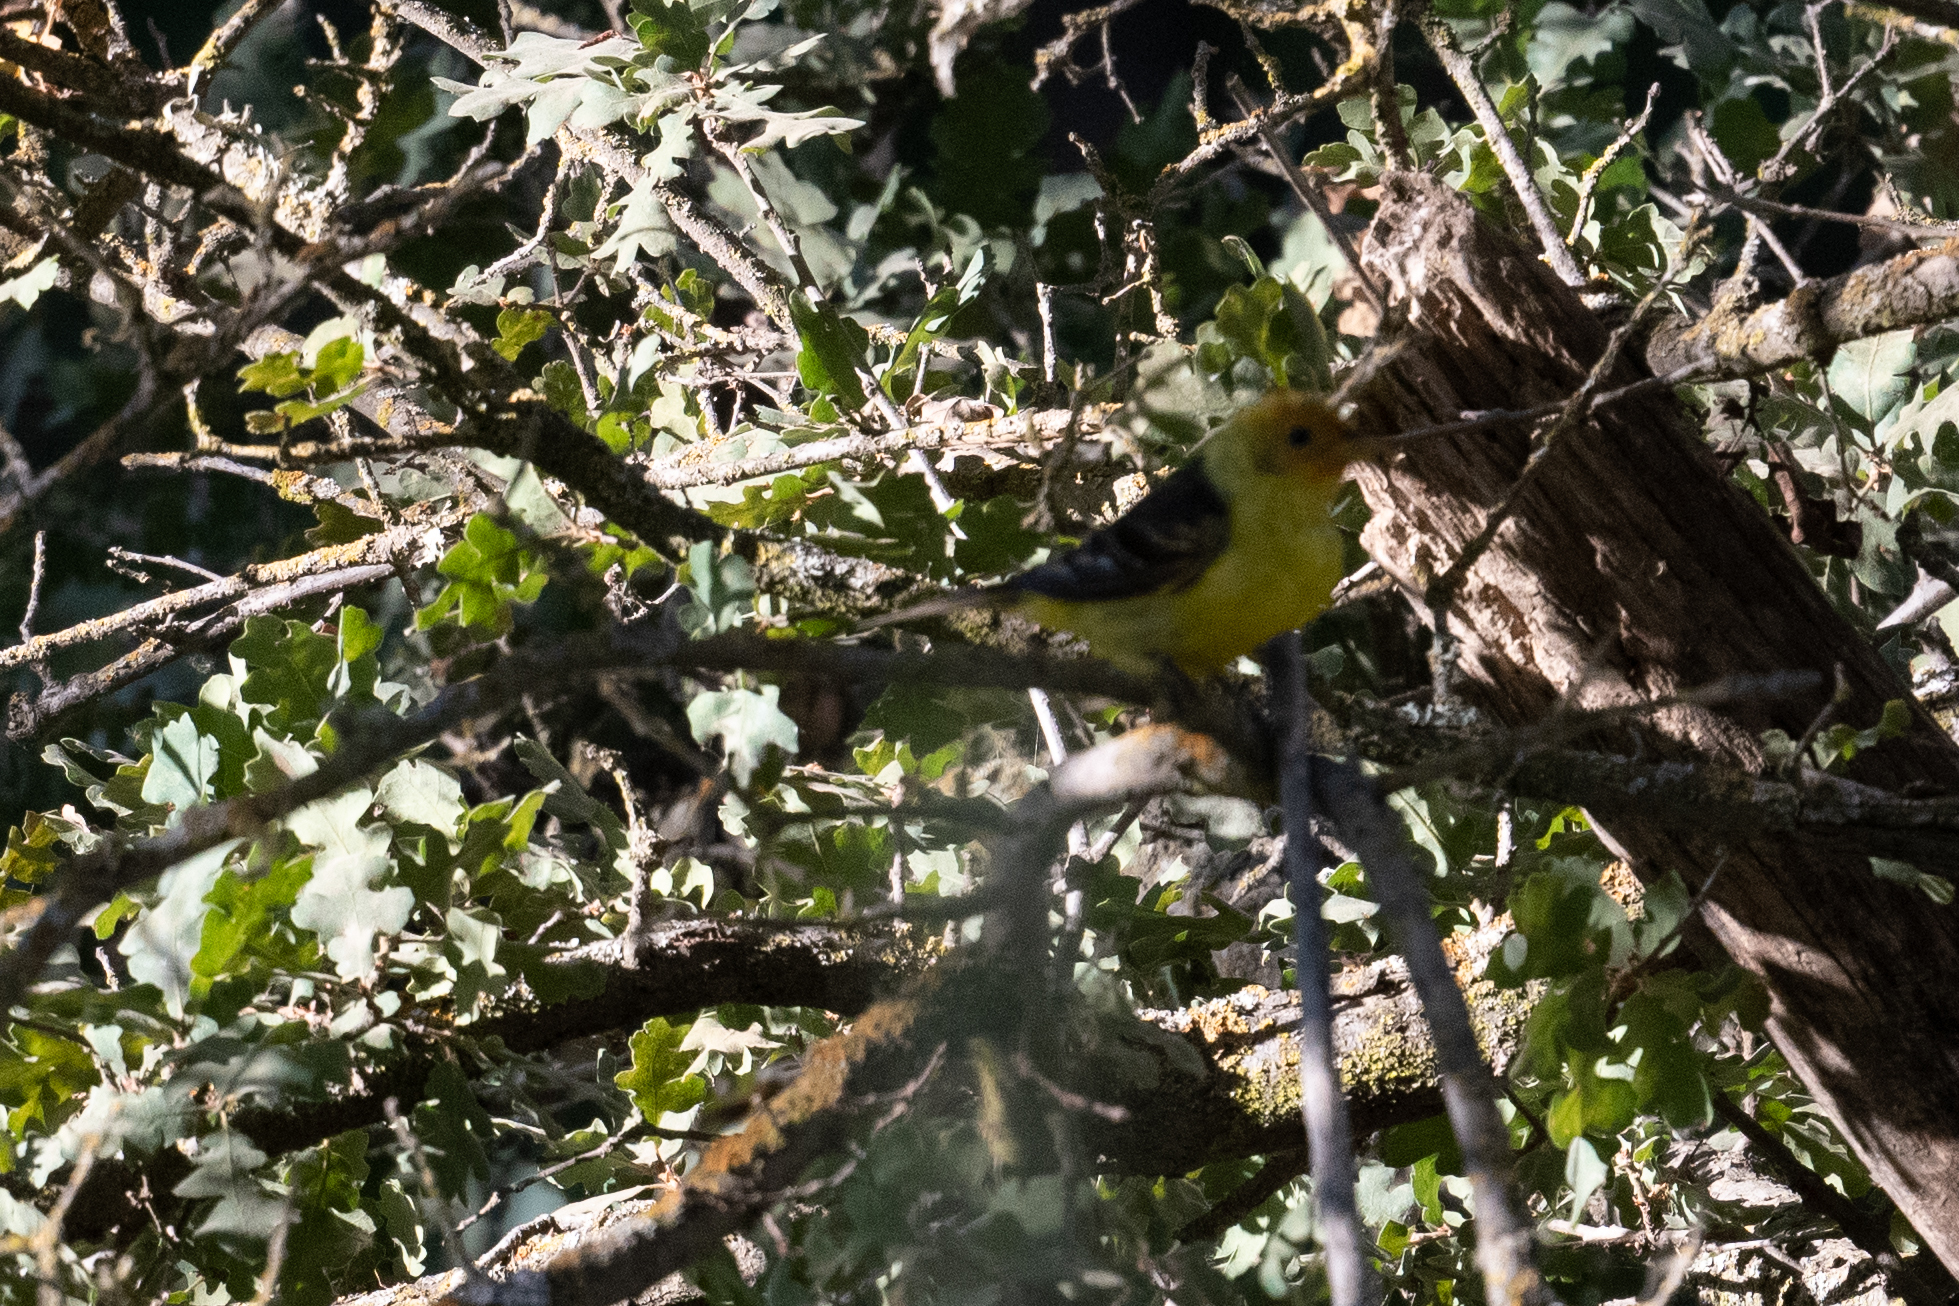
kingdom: Animalia
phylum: Chordata
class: Aves
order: Passeriformes
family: Cardinalidae
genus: Piranga
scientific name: Piranga ludoviciana
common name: Western tanager
